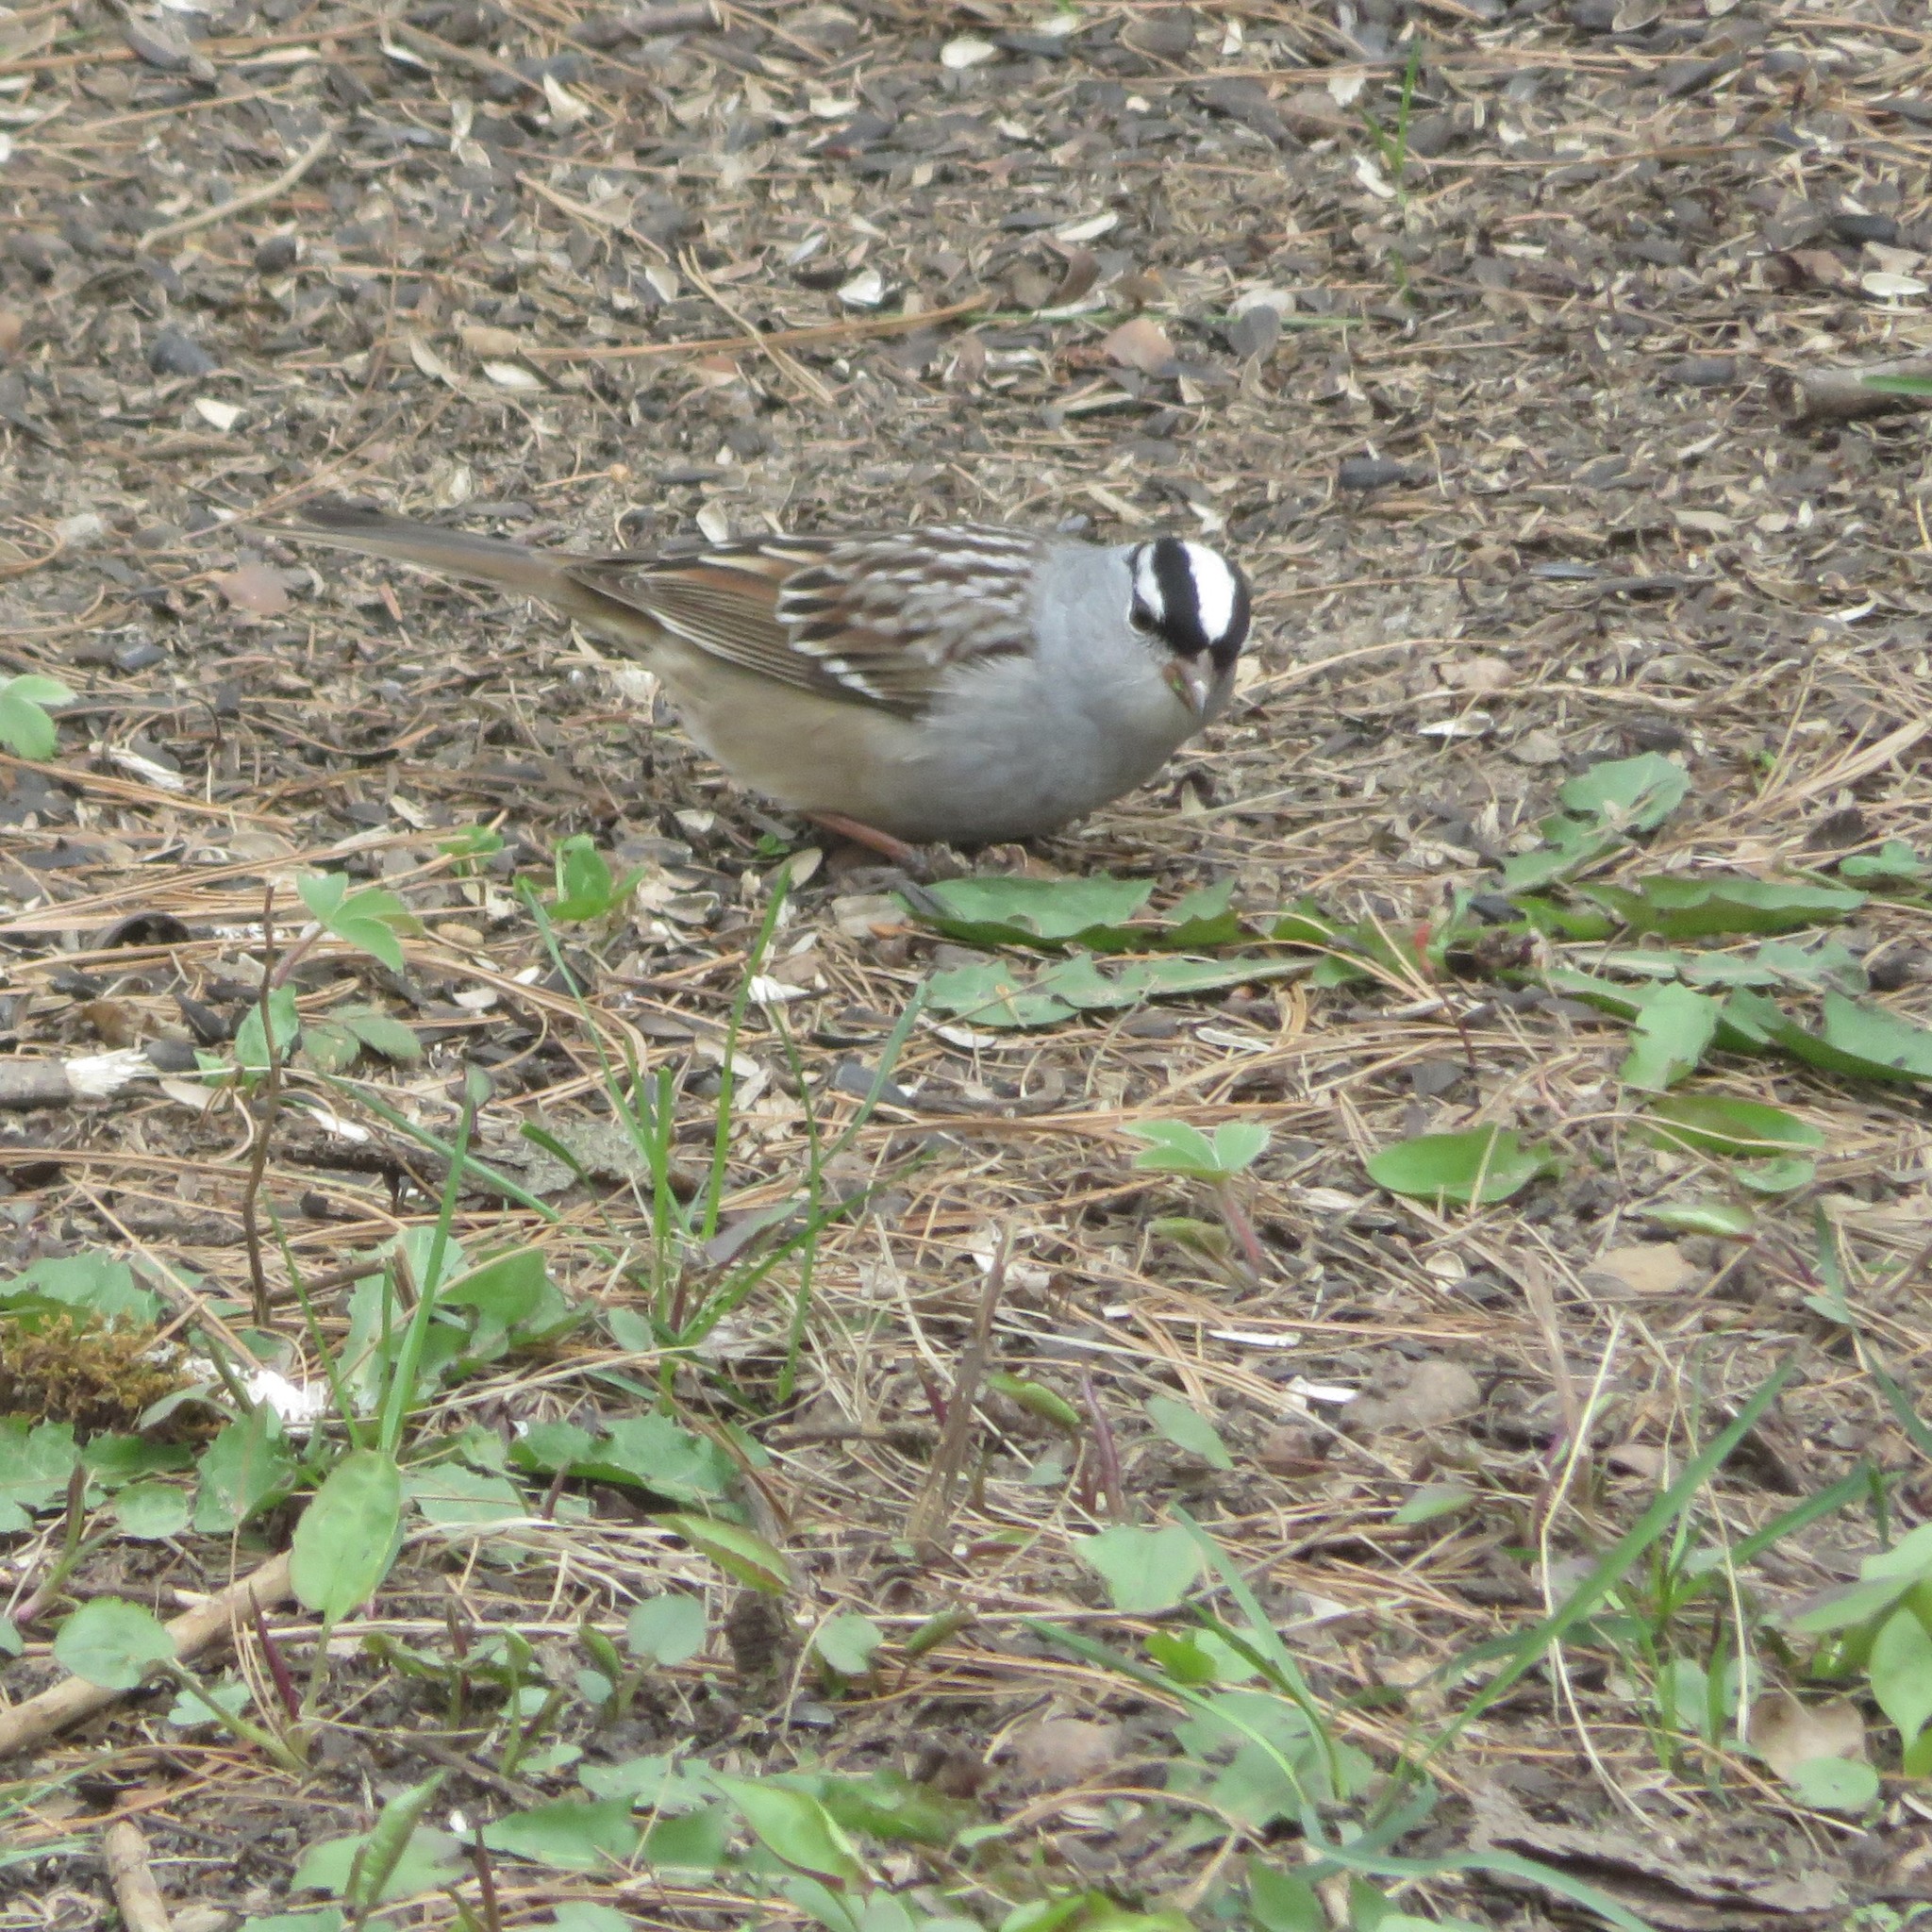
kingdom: Animalia
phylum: Chordata
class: Aves
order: Passeriformes
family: Passerellidae
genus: Zonotrichia
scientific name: Zonotrichia leucophrys
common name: White-crowned sparrow
